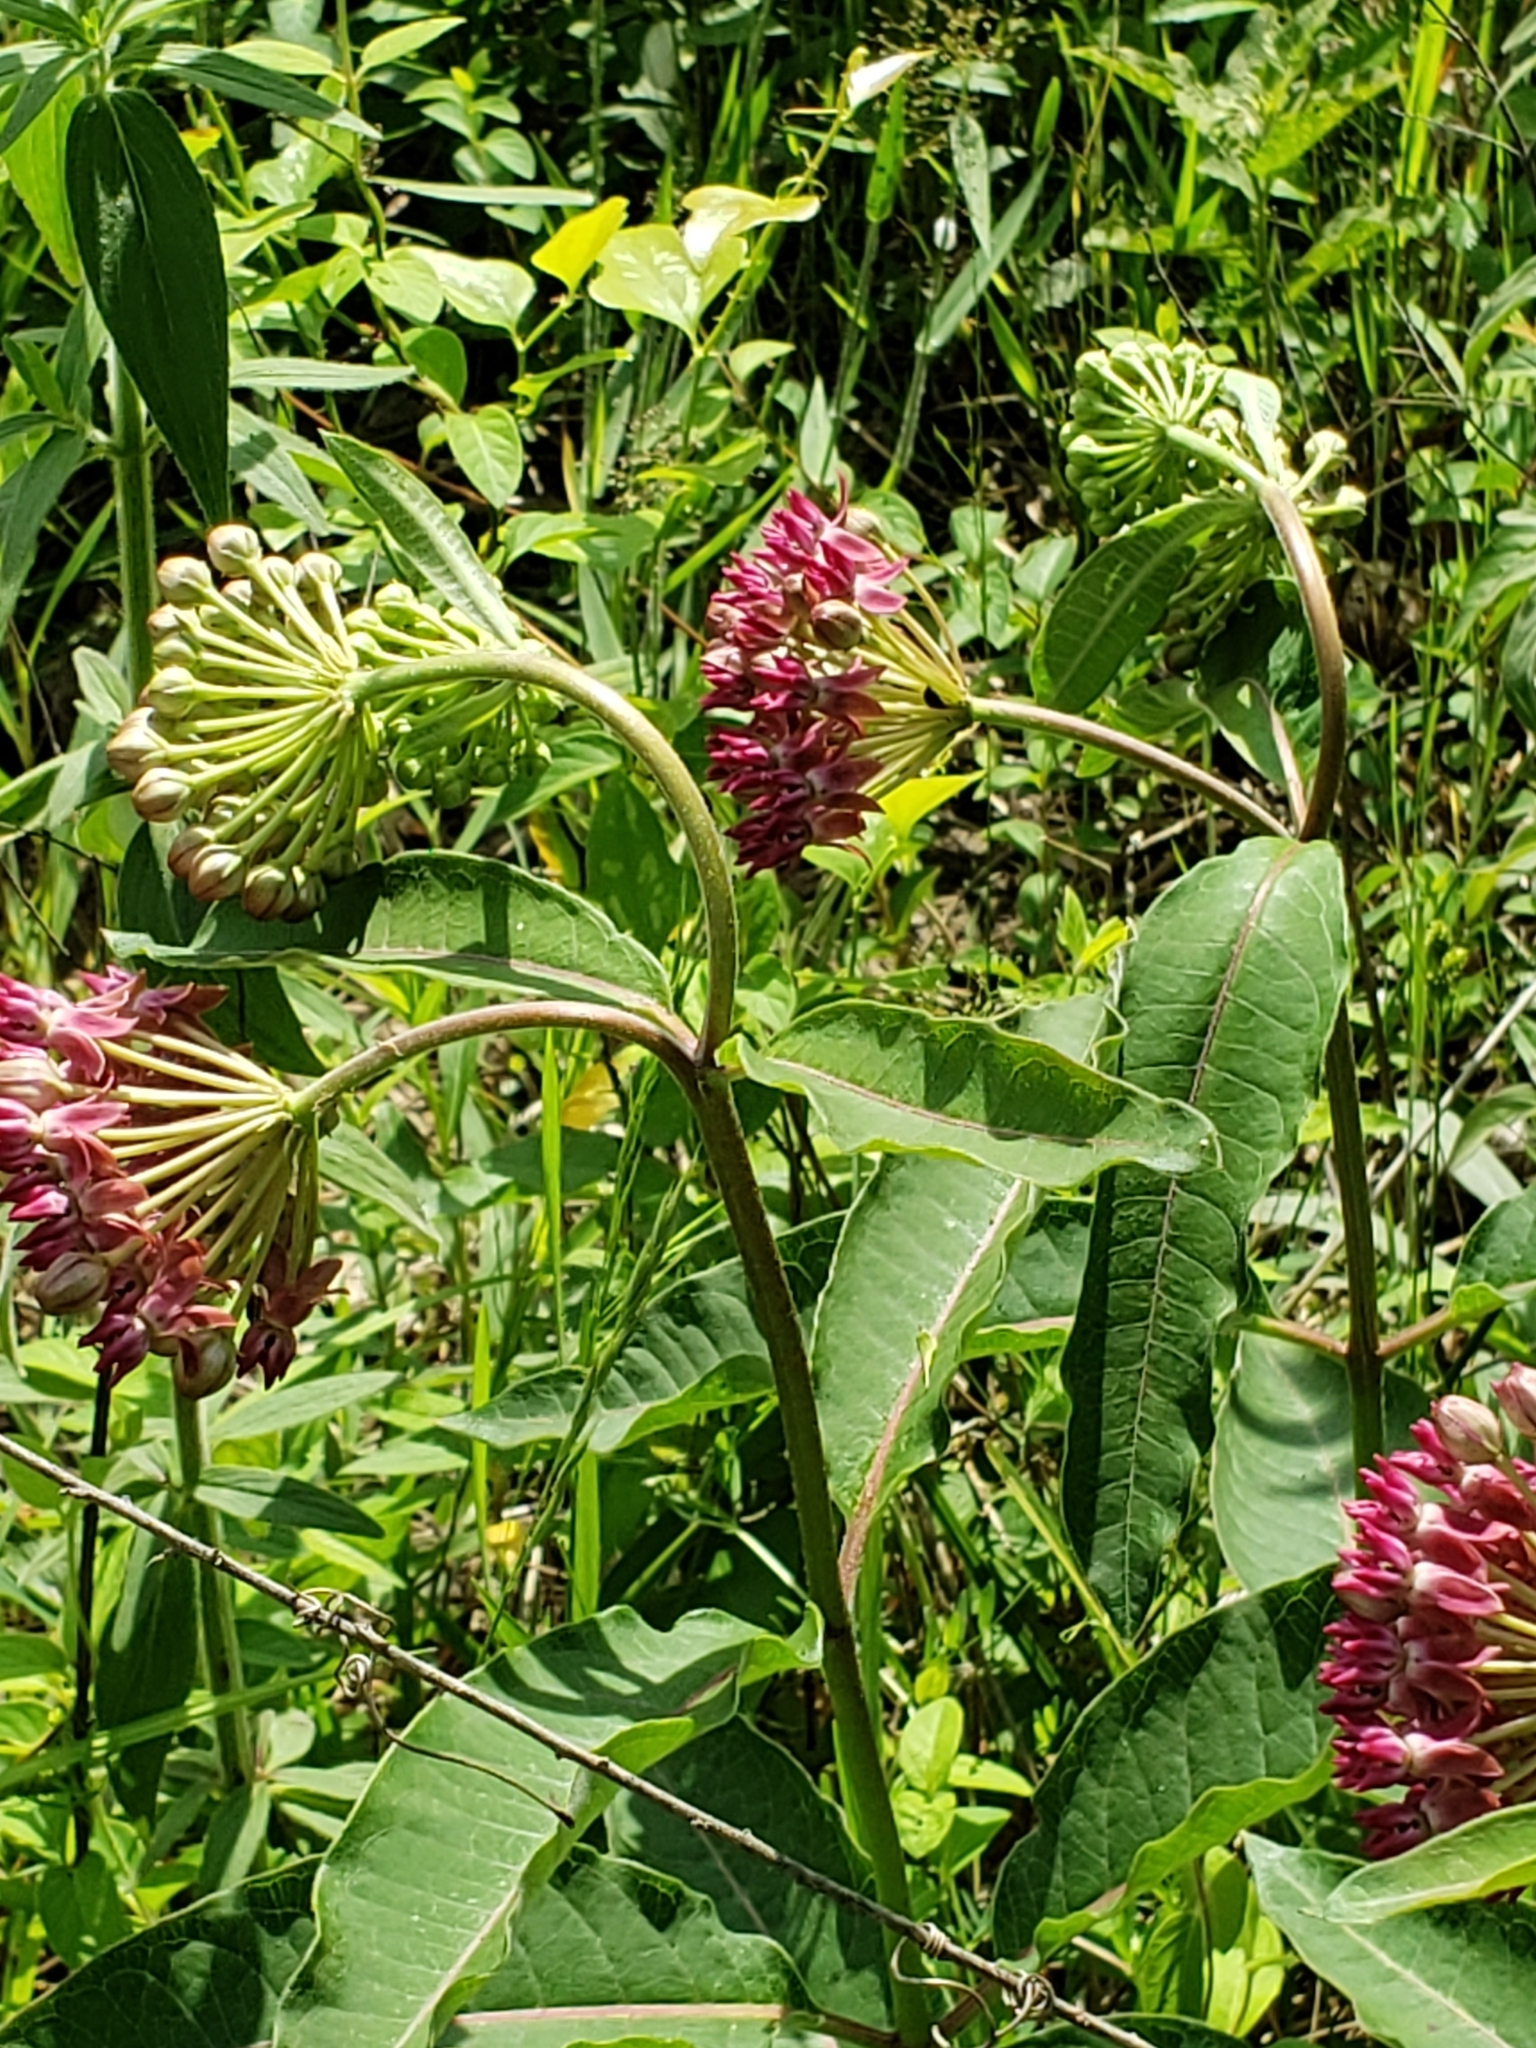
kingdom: Plantae
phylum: Tracheophyta
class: Magnoliopsida
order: Gentianales
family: Apocynaceae
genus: Asclepias
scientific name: Asclepias purpurascens
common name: Purple milkweed
